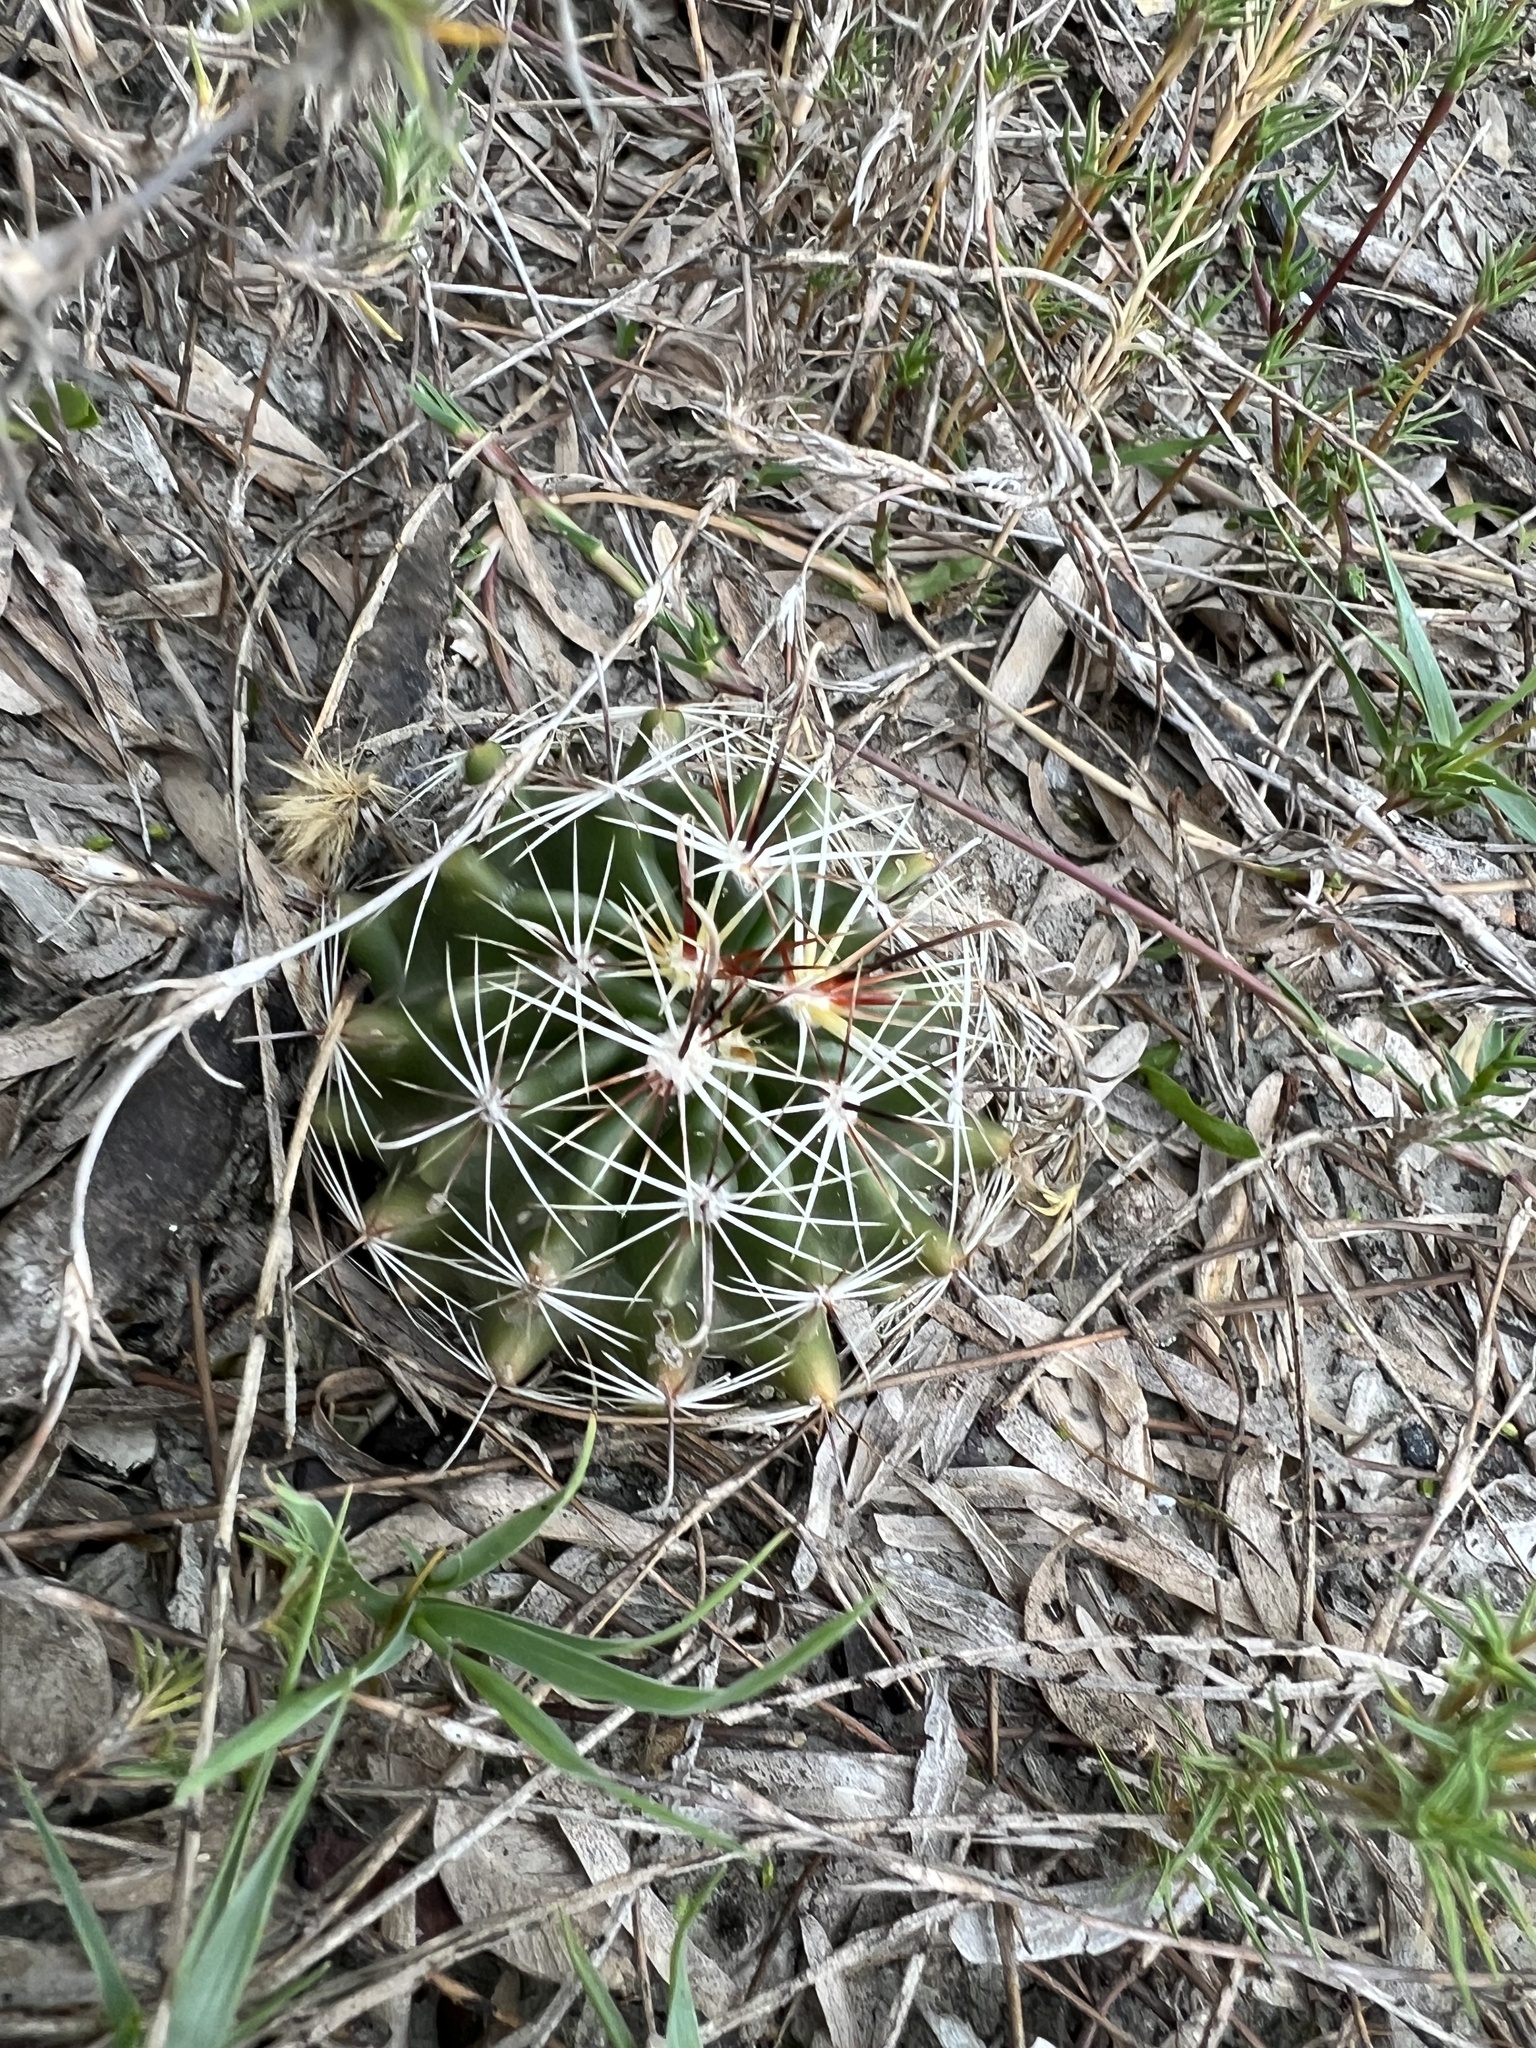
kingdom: Plantae
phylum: Tracheophyta
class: Magnoliopsida
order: Caryophyllales
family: Cactaceae
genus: Thelocactus
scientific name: Thelocactus setispinus
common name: Miniature barrel cactus
